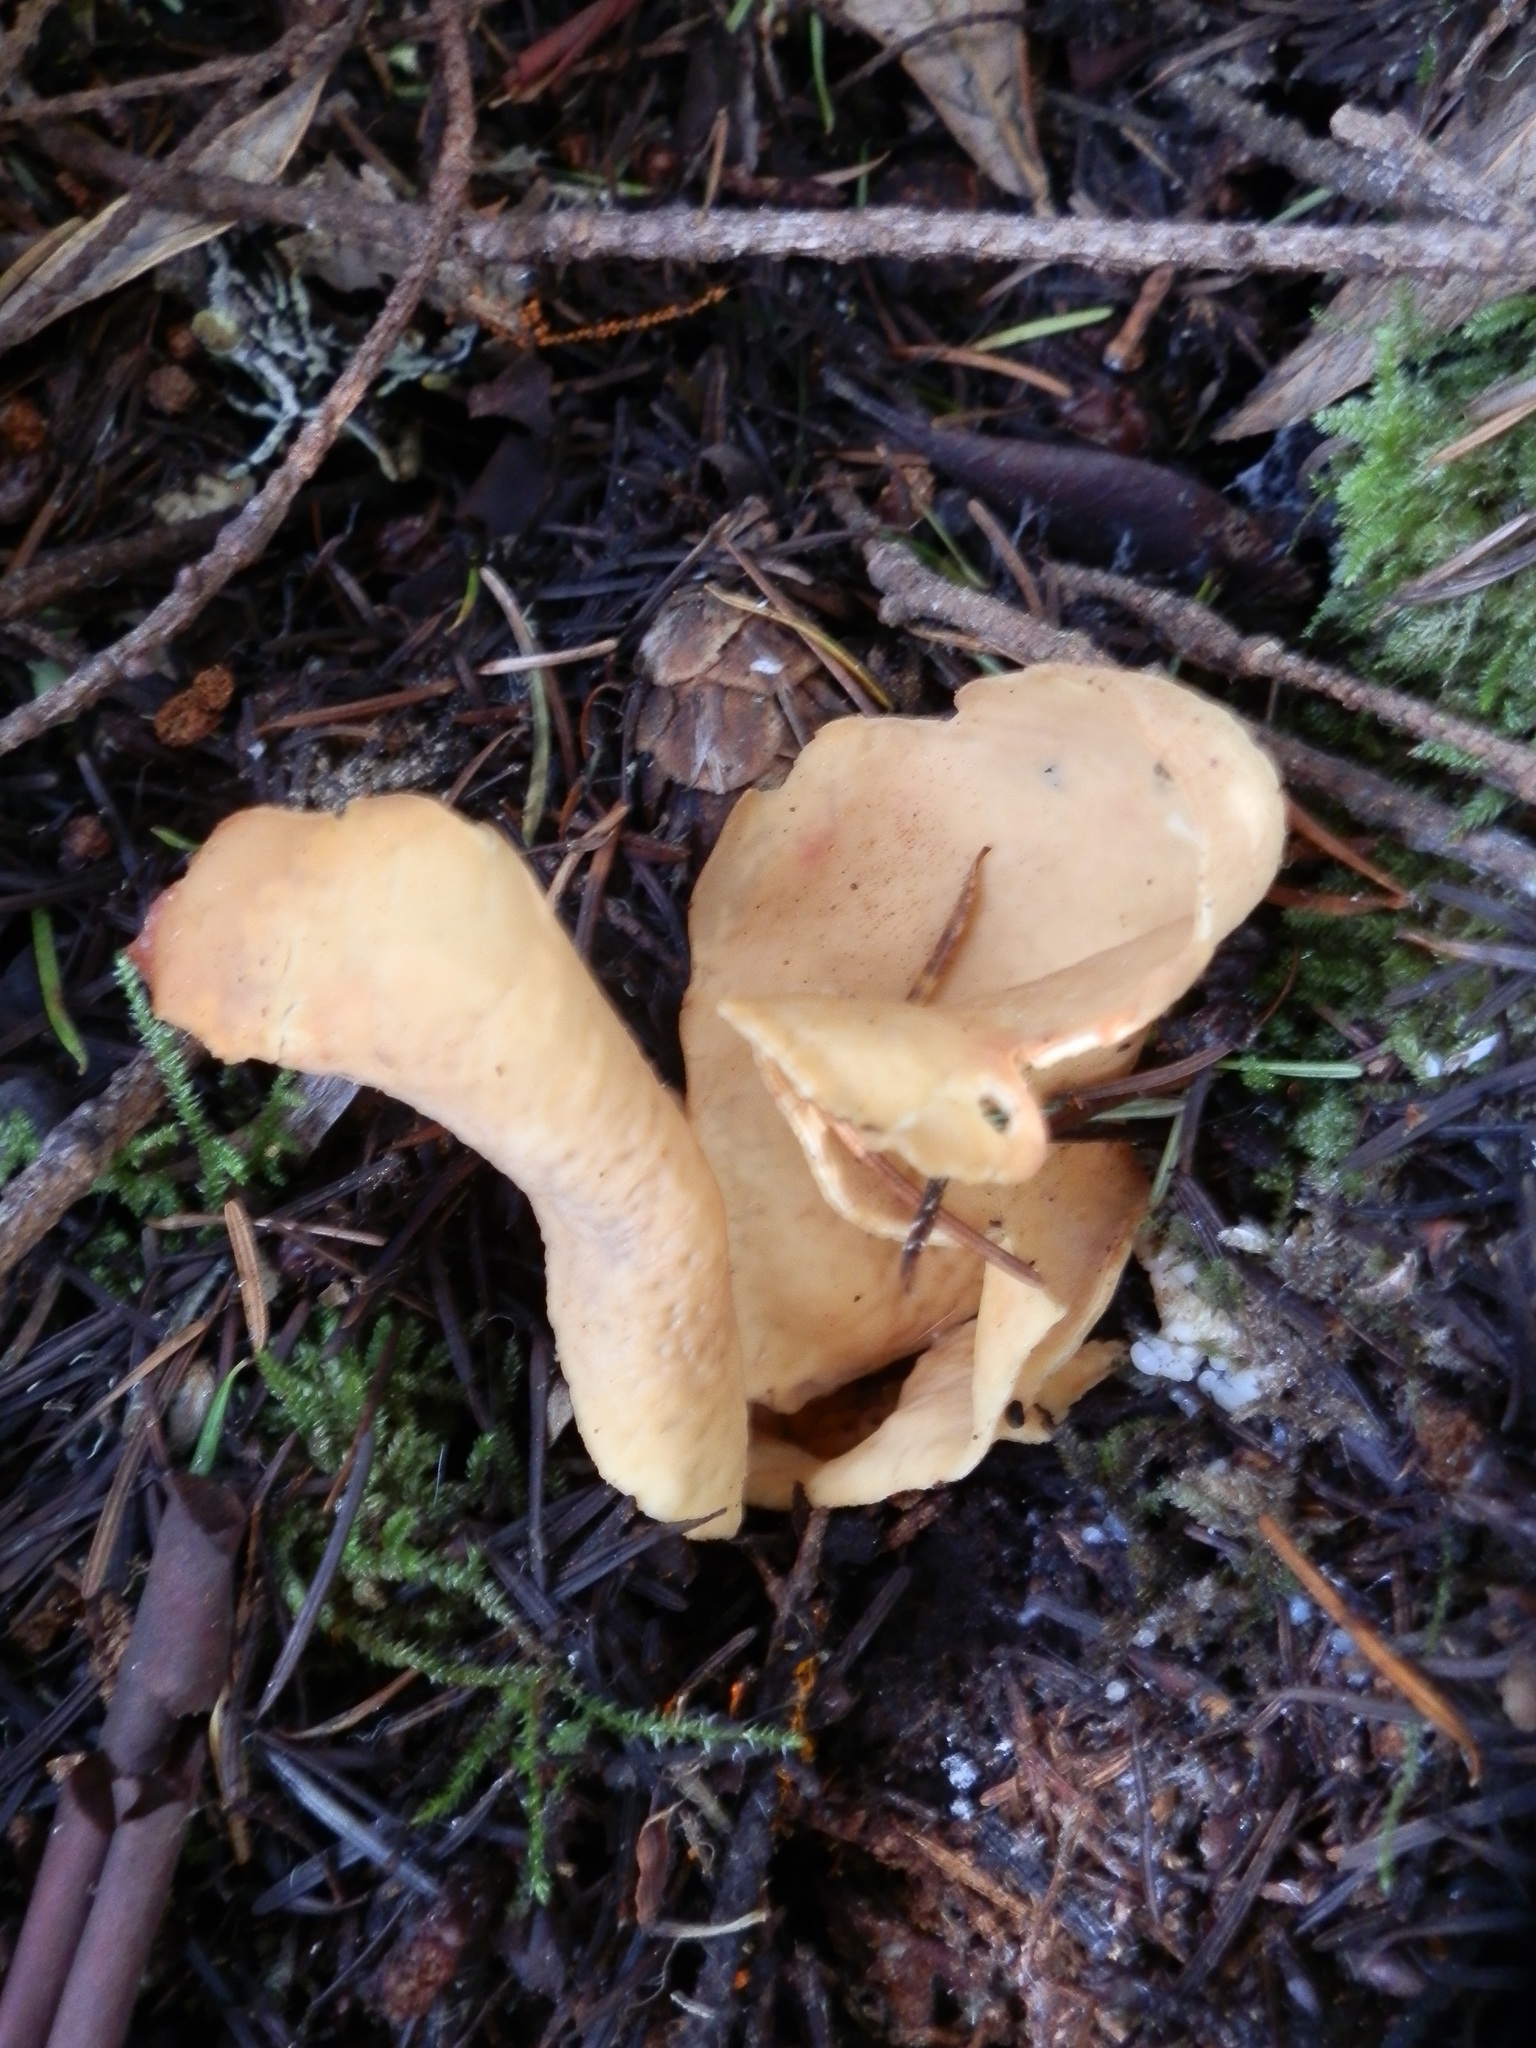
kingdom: Fungi
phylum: Ascomycota
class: Pezizomycetes
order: Pezizales
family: Otideaceae
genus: Otidea
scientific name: Otidea onotica
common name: Hare's ear
